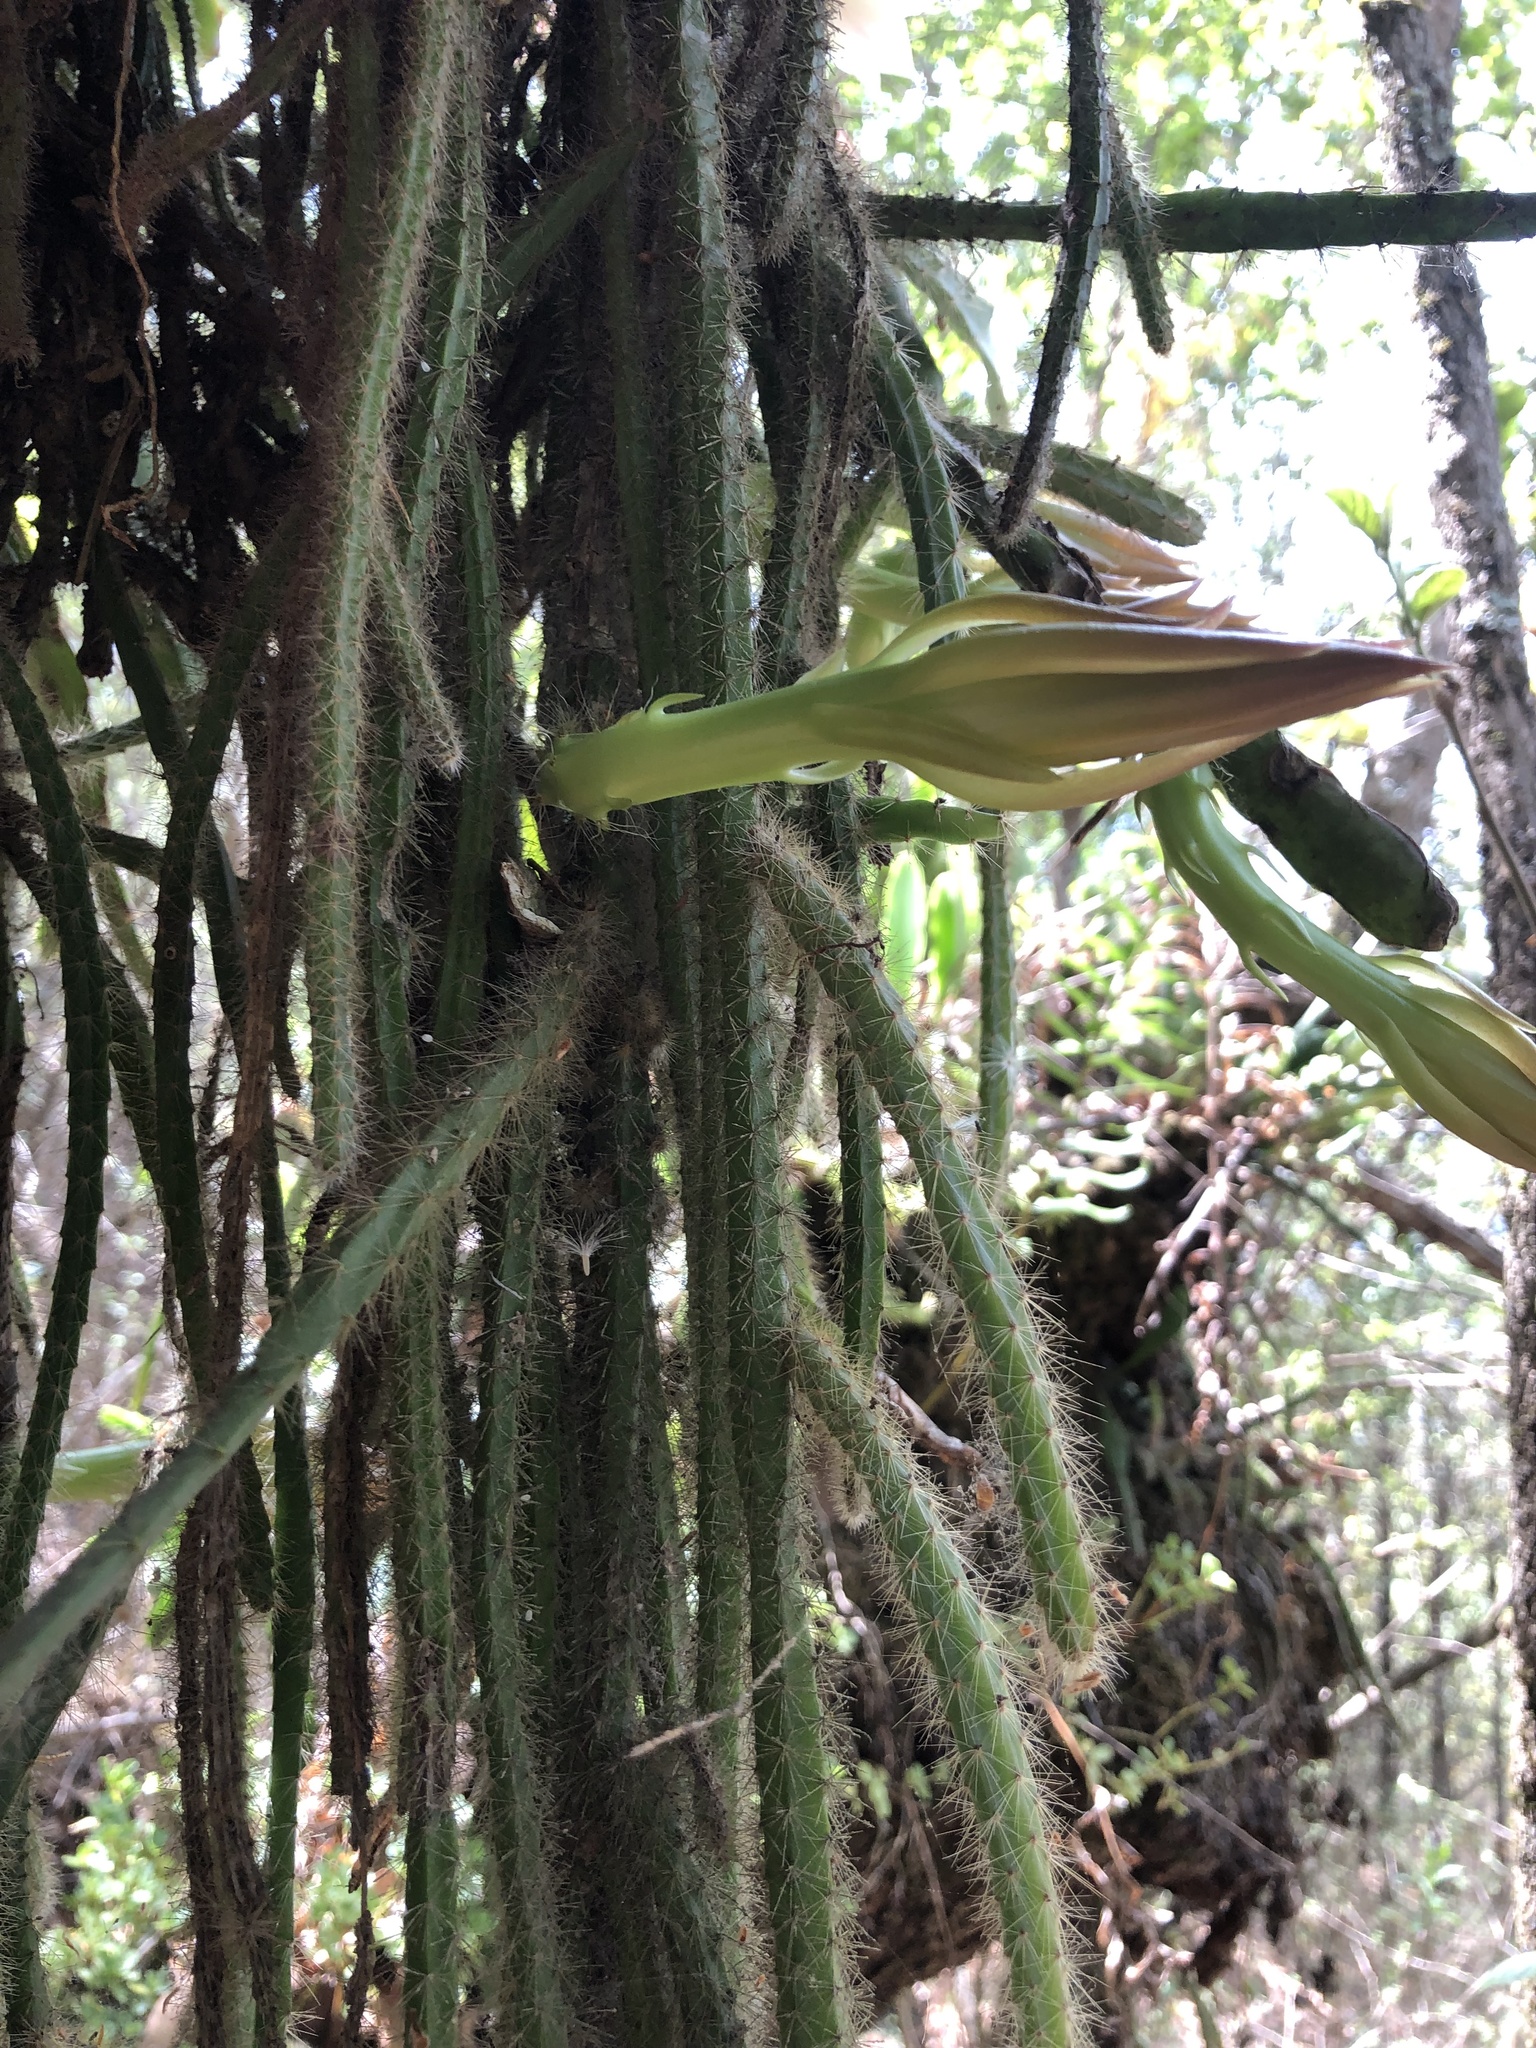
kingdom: Plantae
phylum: Tracheophyta
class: Magnoliopsida
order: Caryophyllales
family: Cactaceae
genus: Selenicereus
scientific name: Selenicereus triangularis
